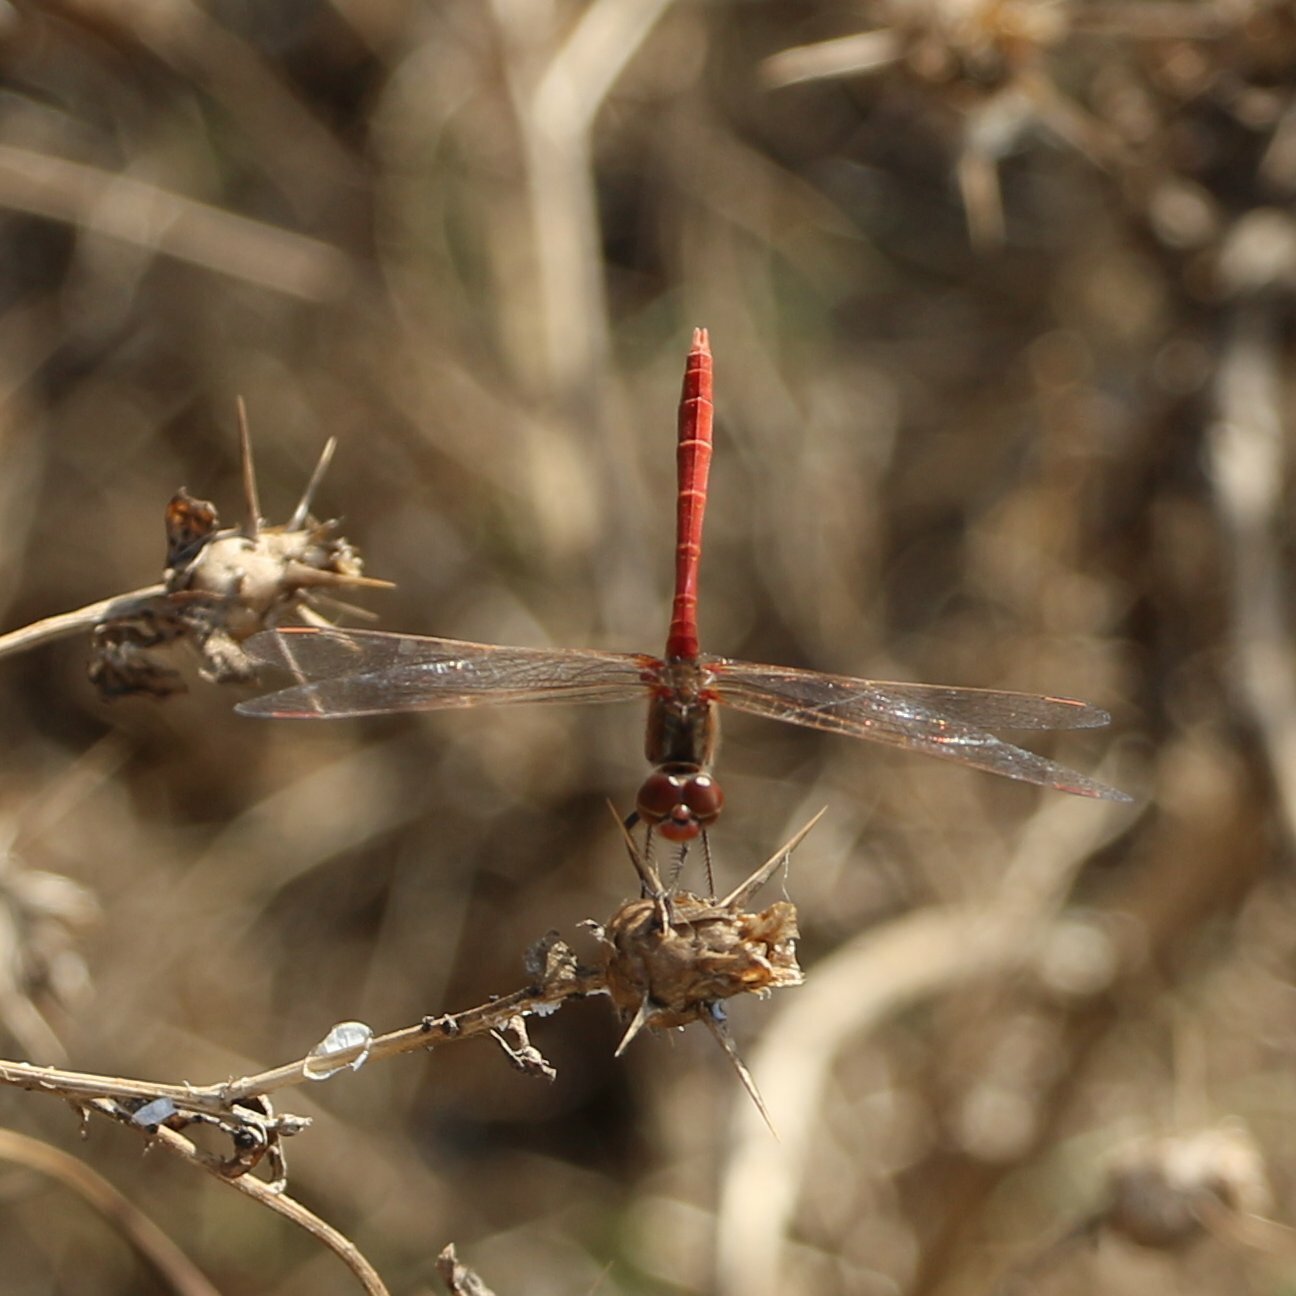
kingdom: Animalia
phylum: Arthropoda
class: Insecta
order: Odonata
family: Libellulidae
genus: Sympetrum
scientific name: Sympetrum meridionale
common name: Southern darter
